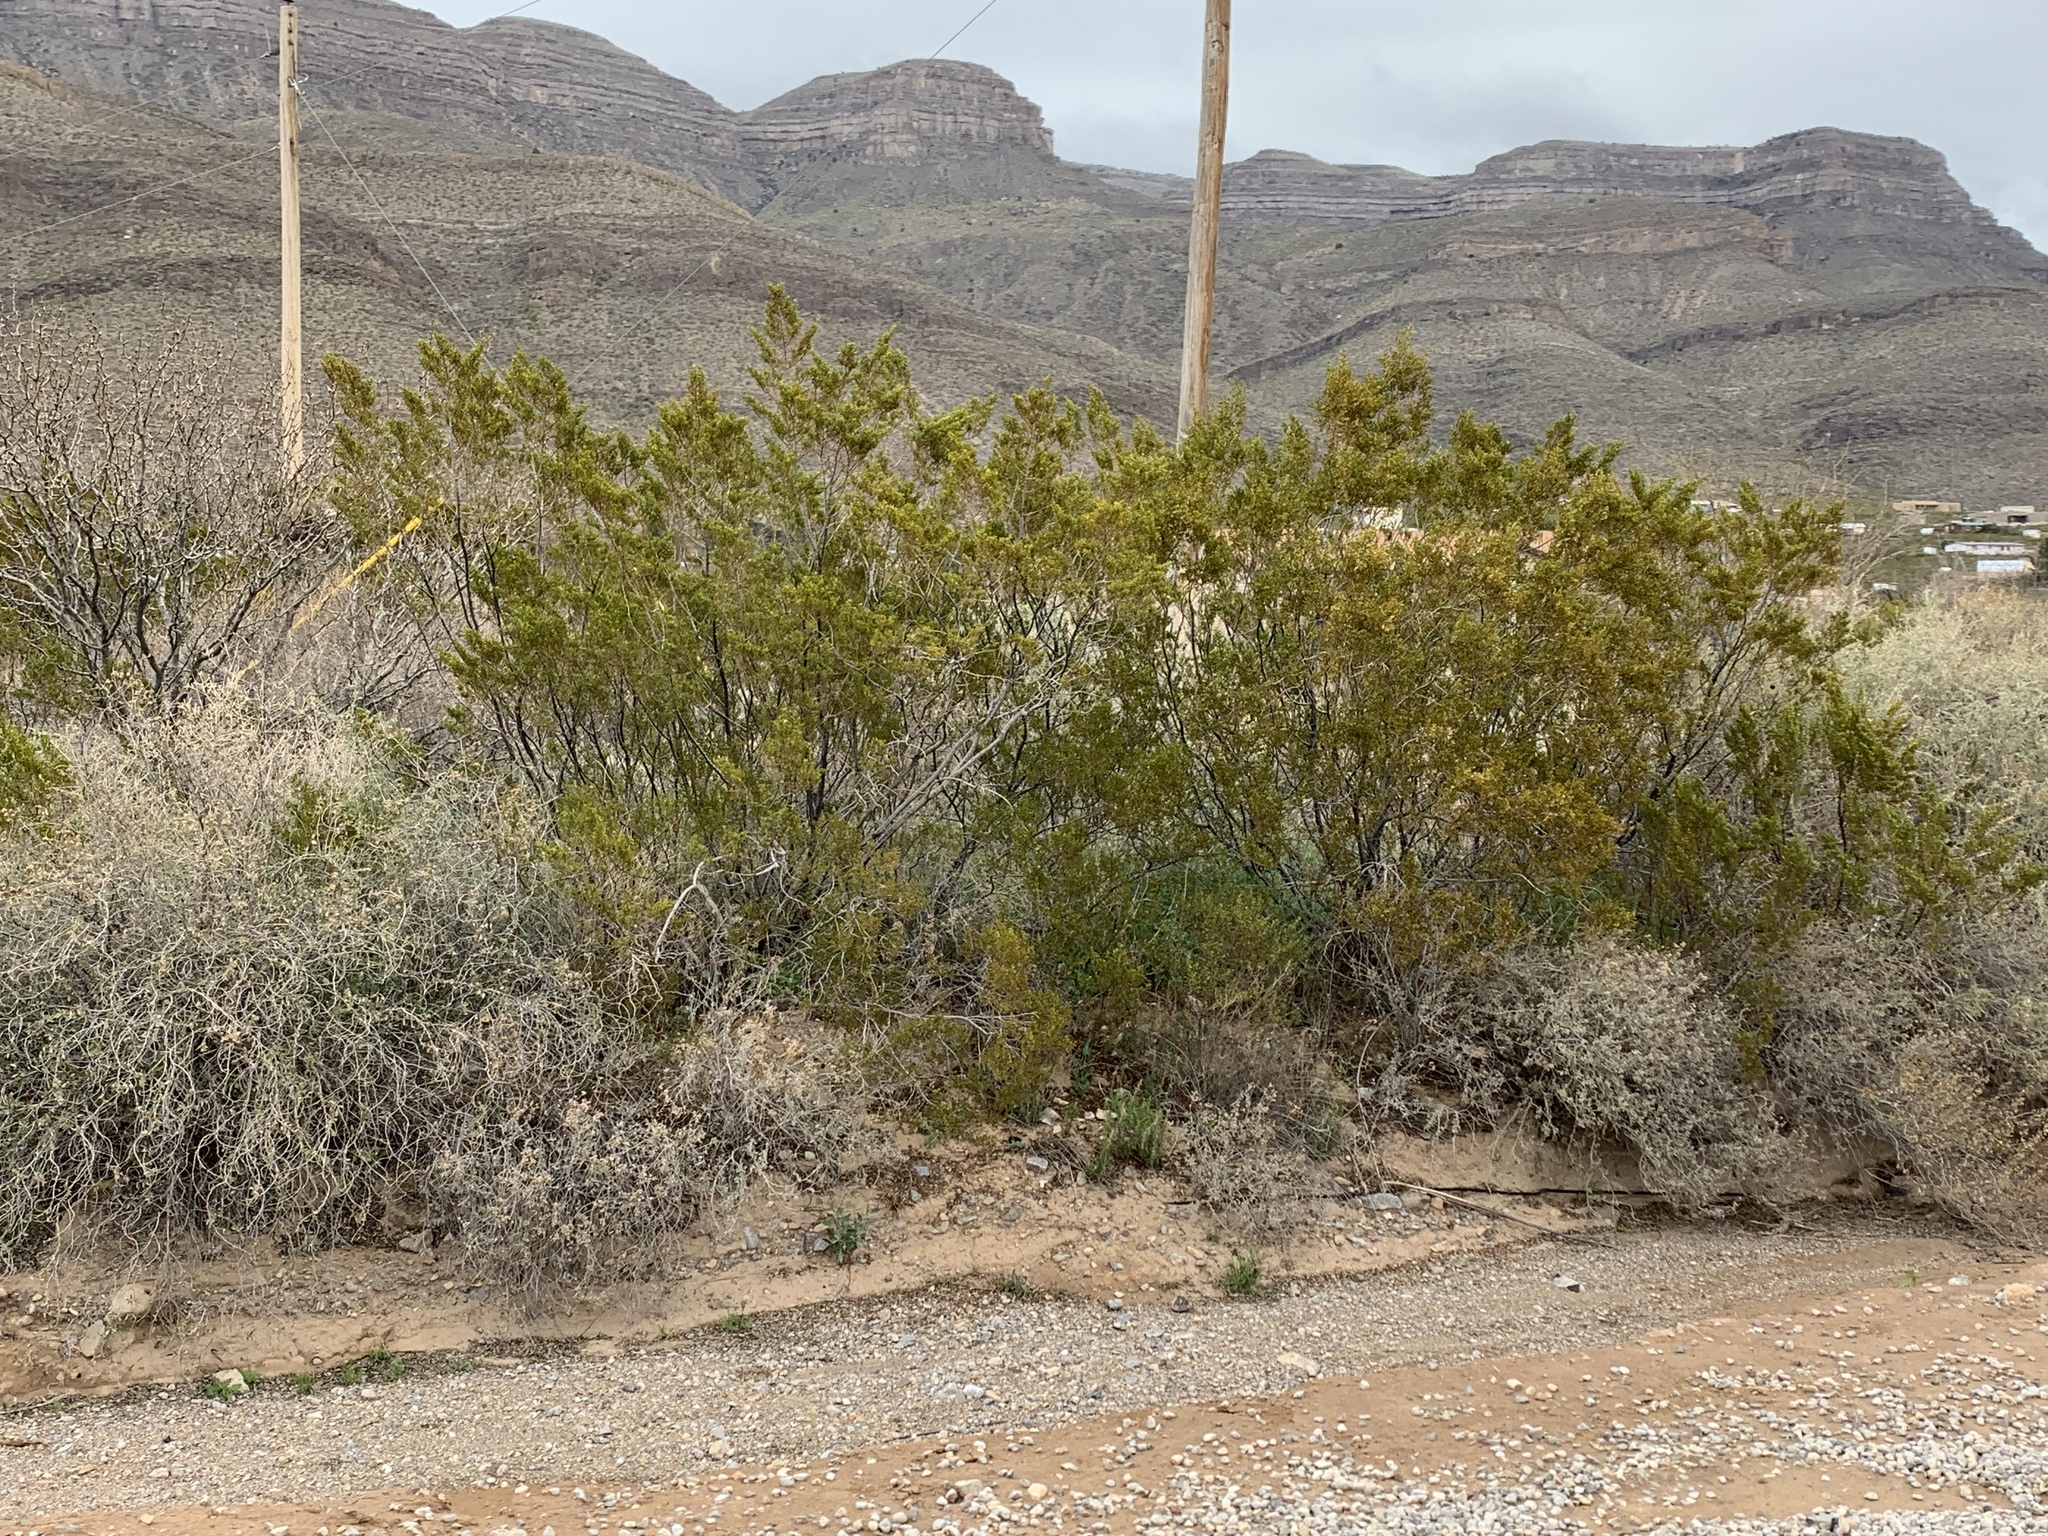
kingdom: Plantae
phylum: Tracheophyta
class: Magnoliopsida
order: Zygophyllales
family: Zygophyllaceae
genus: Larrea
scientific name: Larrea tridentata
